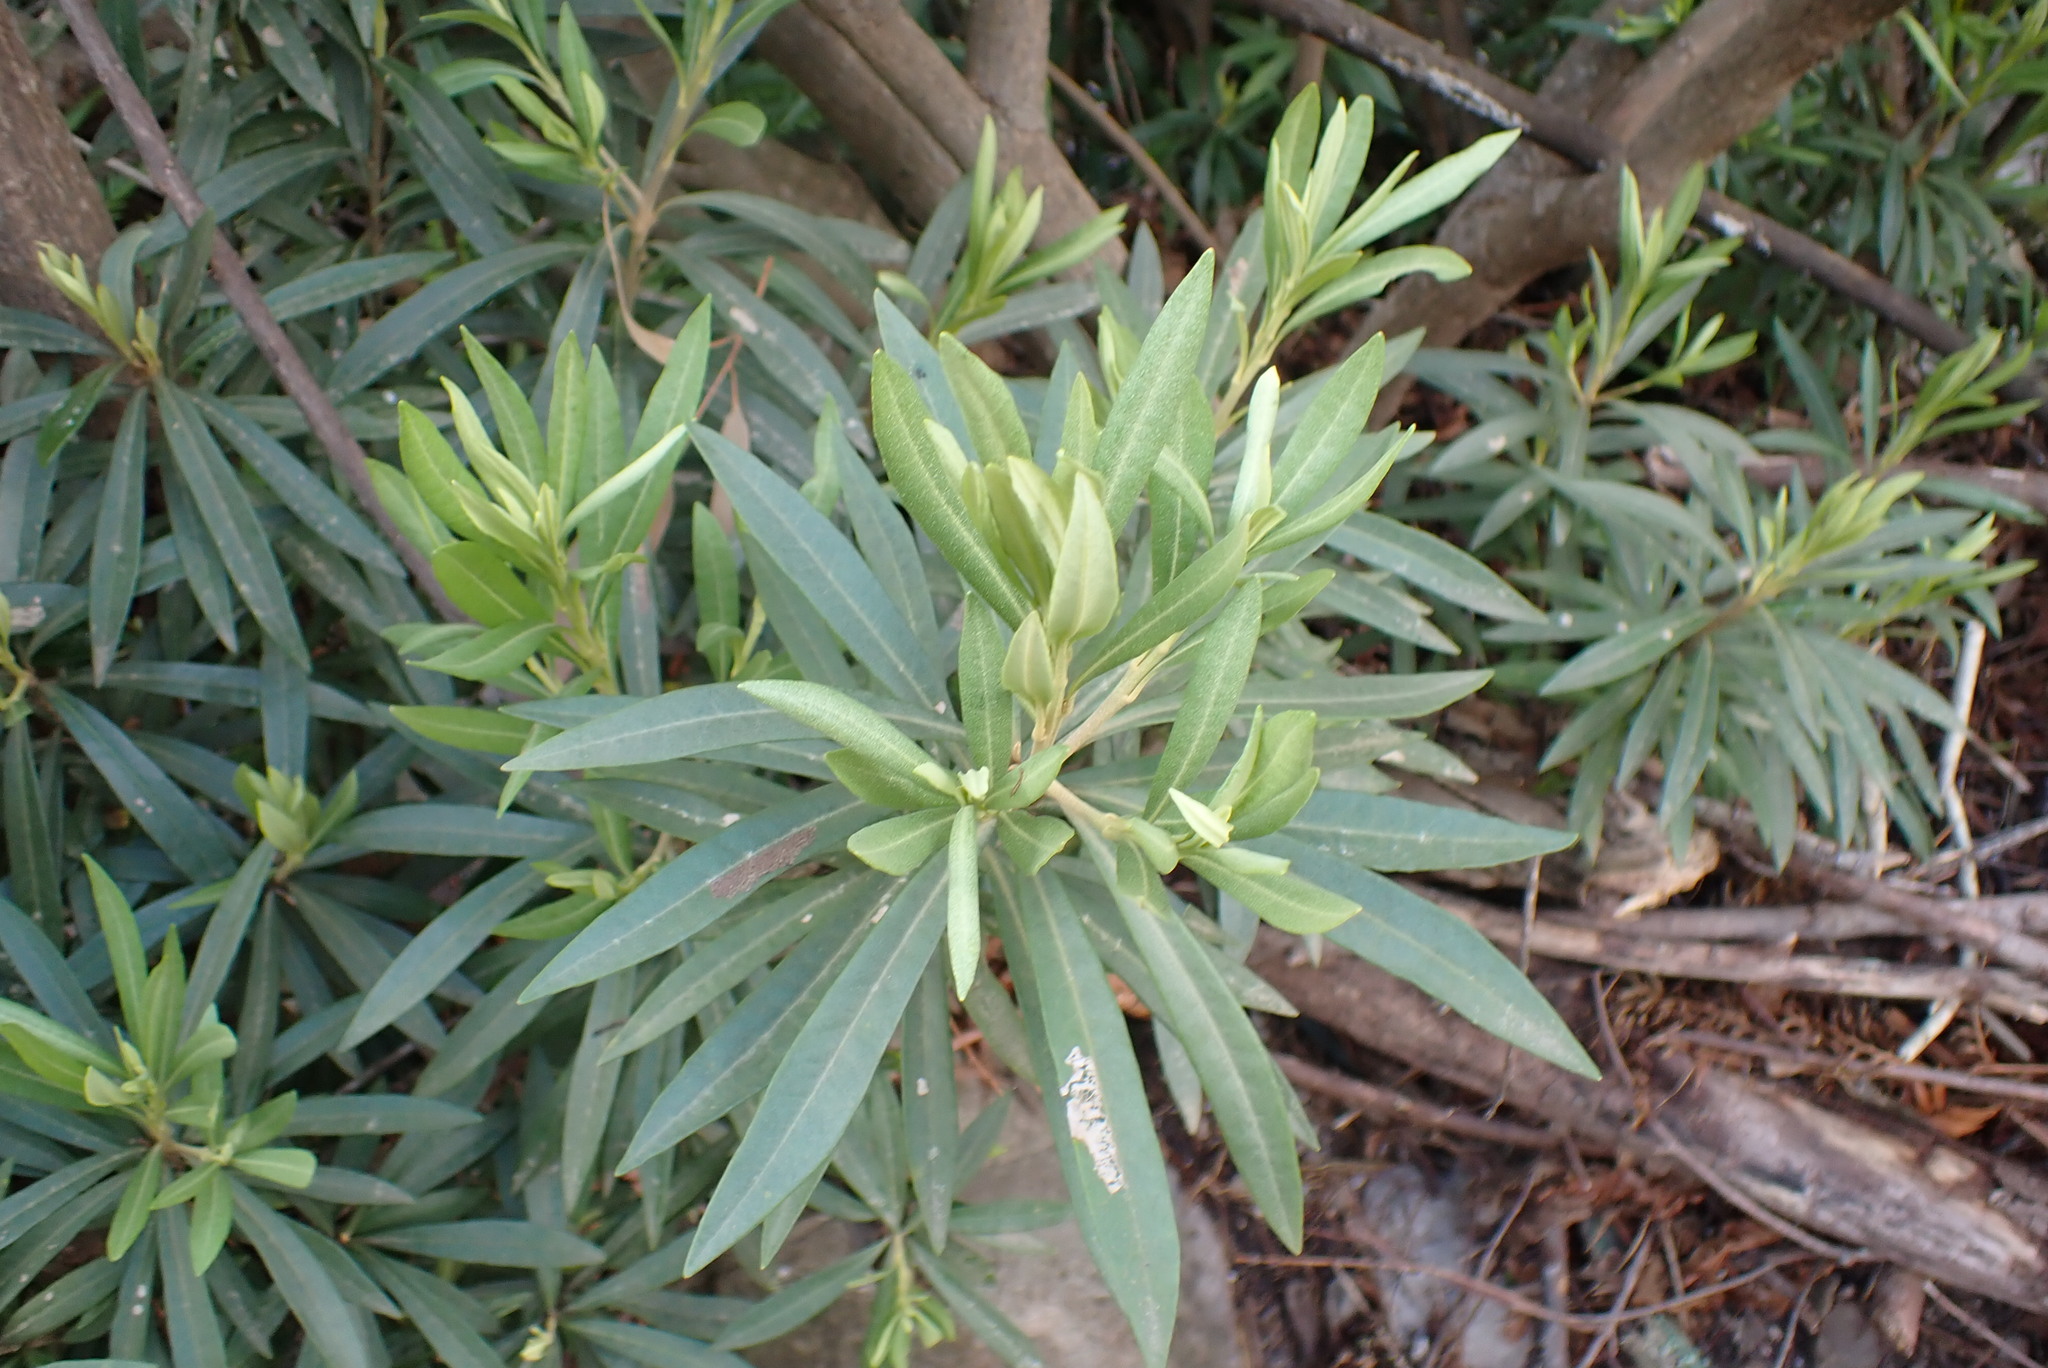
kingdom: Plantae
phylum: Tracheophyta
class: Magnoliopsida
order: Asterales
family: Asteraceae
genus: Brachylaena
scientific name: Brachylaena neriifolia
